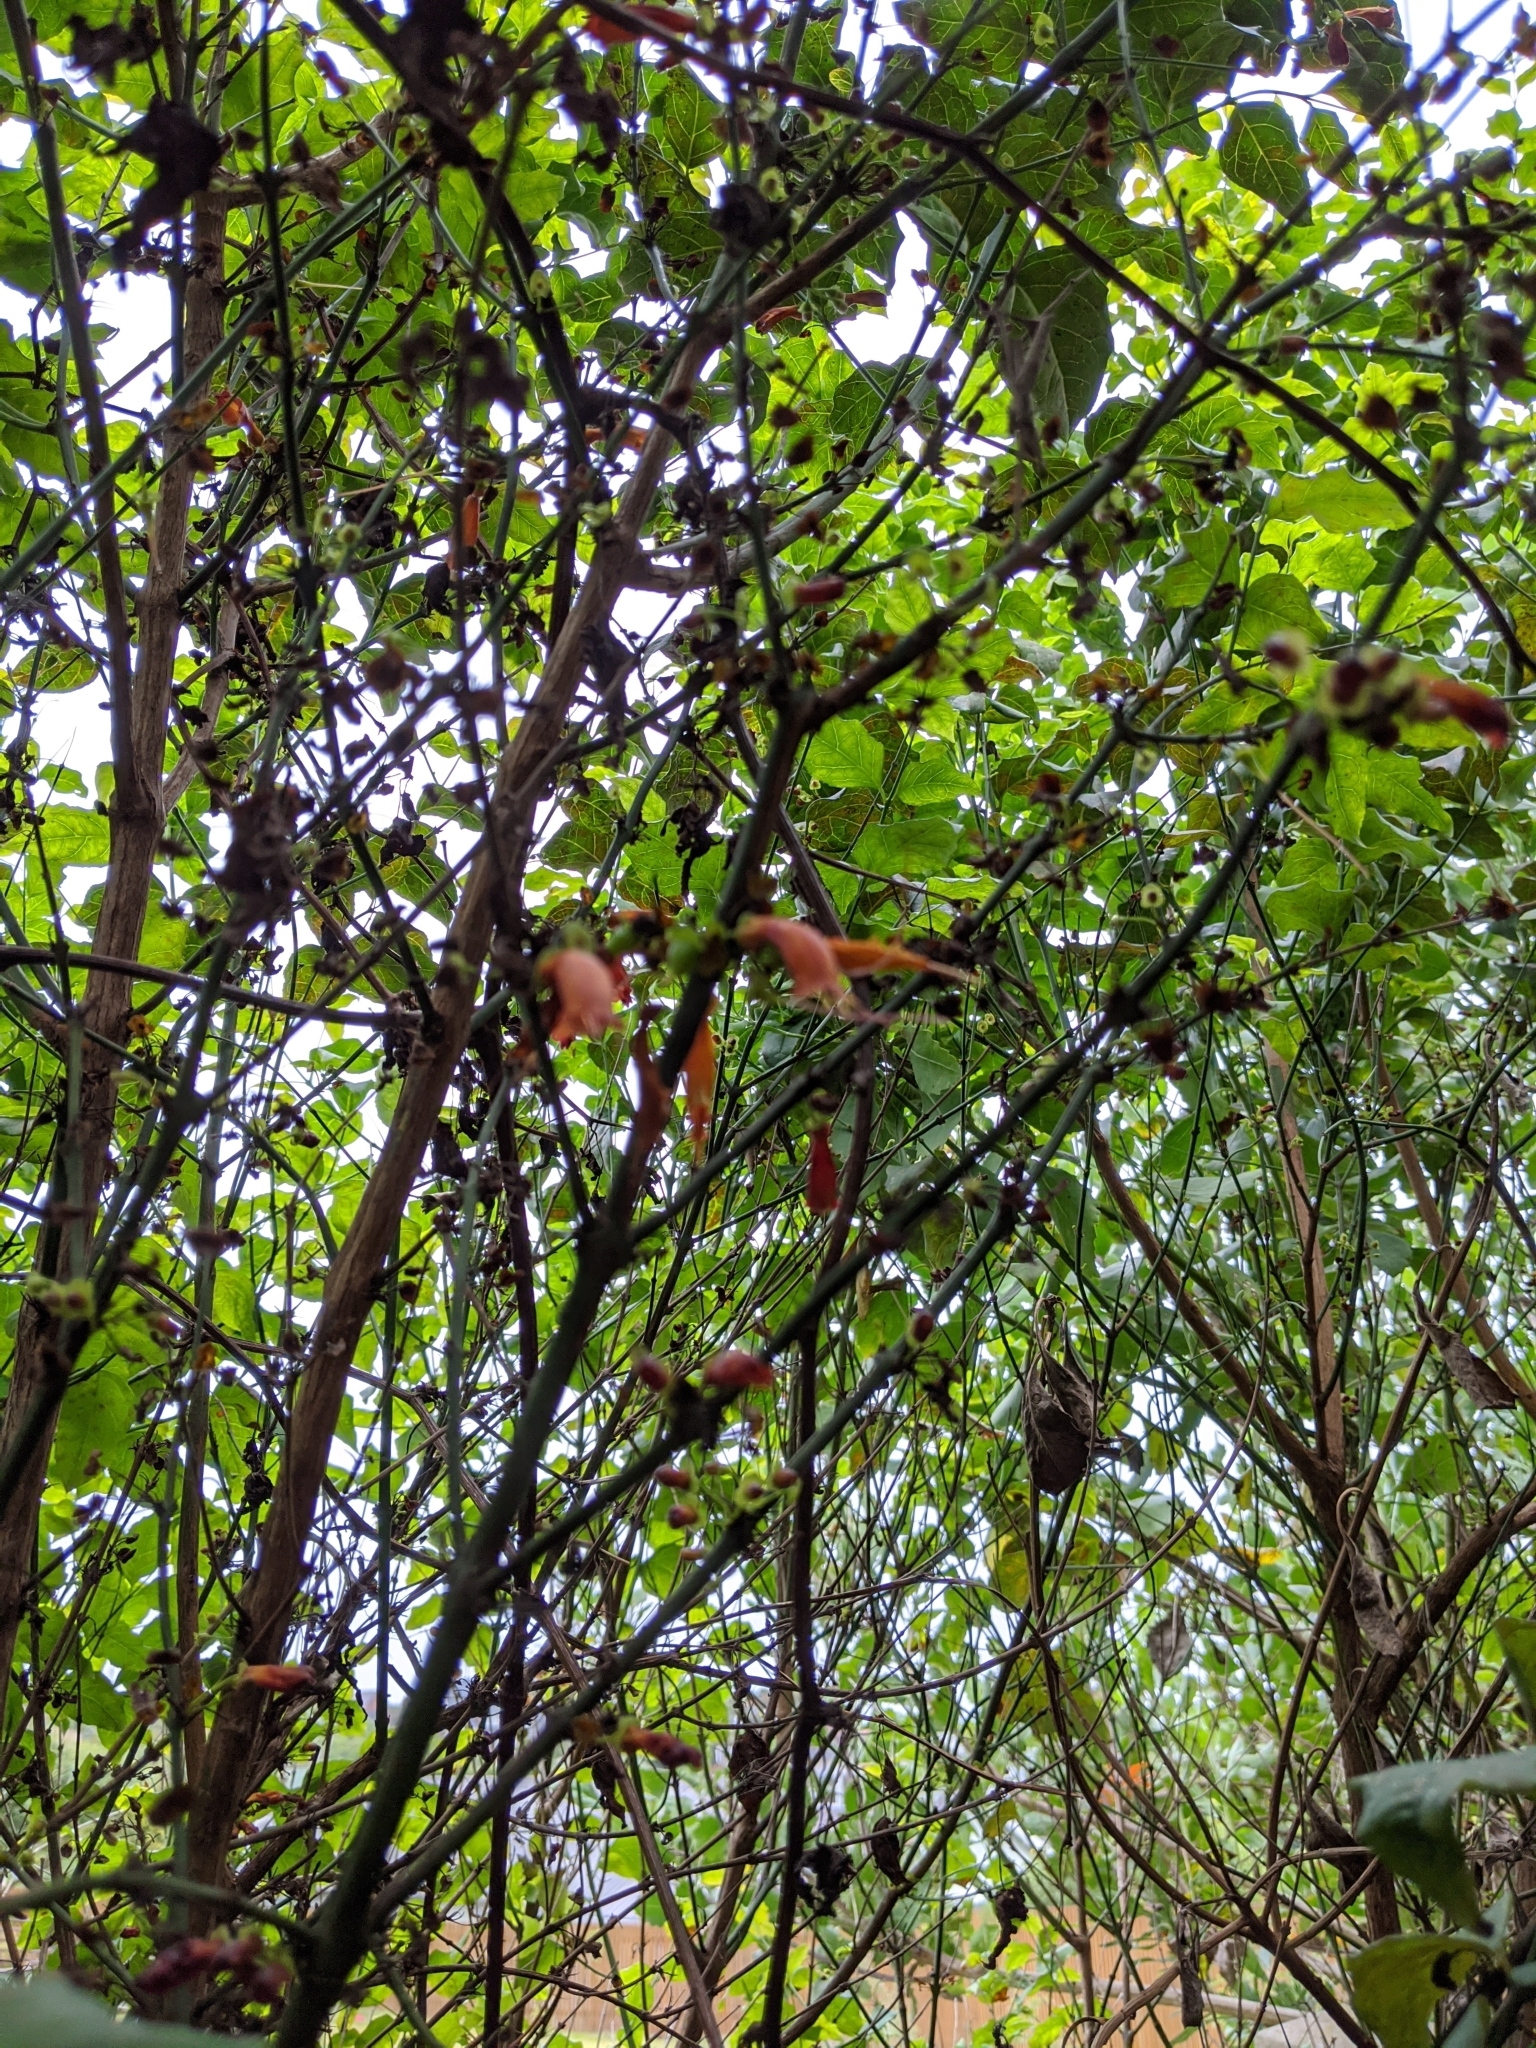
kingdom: Plantae
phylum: Tracheophyta
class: Magnoliopsida
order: Lamiales
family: Stilbaceae
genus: Halleria
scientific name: Halleria lucida
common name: Tree fuschia
